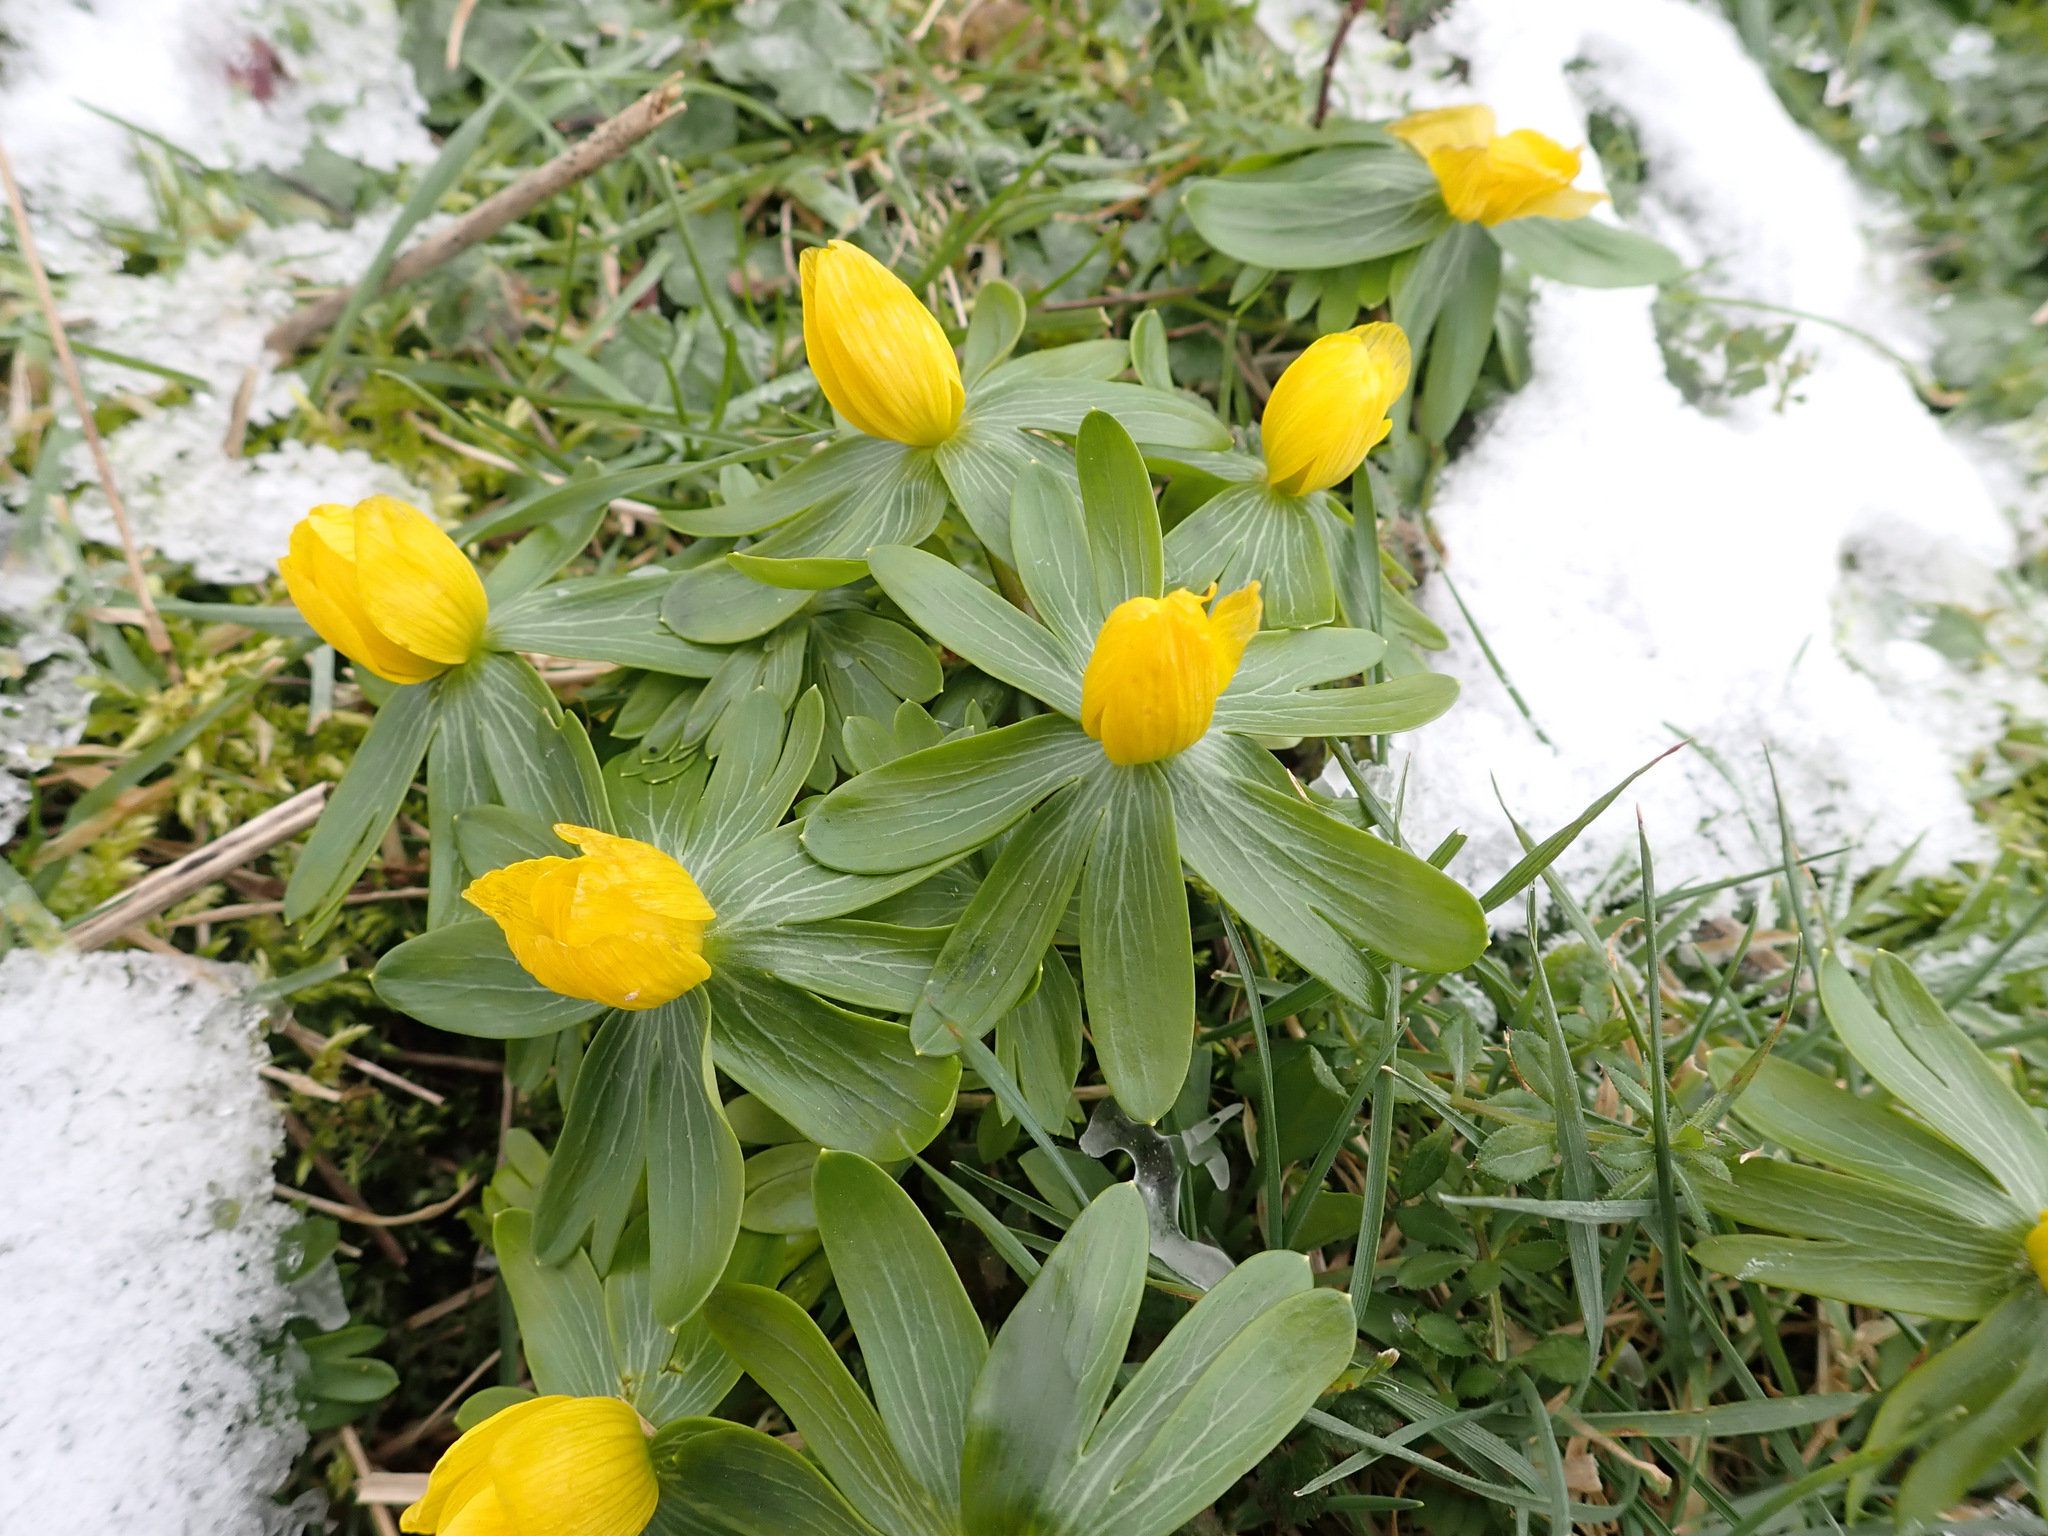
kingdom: Plantae
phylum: Tracheophyta
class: Magnoliopsida
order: Ranunculales
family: Ranunculaceae
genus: Eranthis
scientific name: Eranthis hyemalis
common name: Winter aconite
